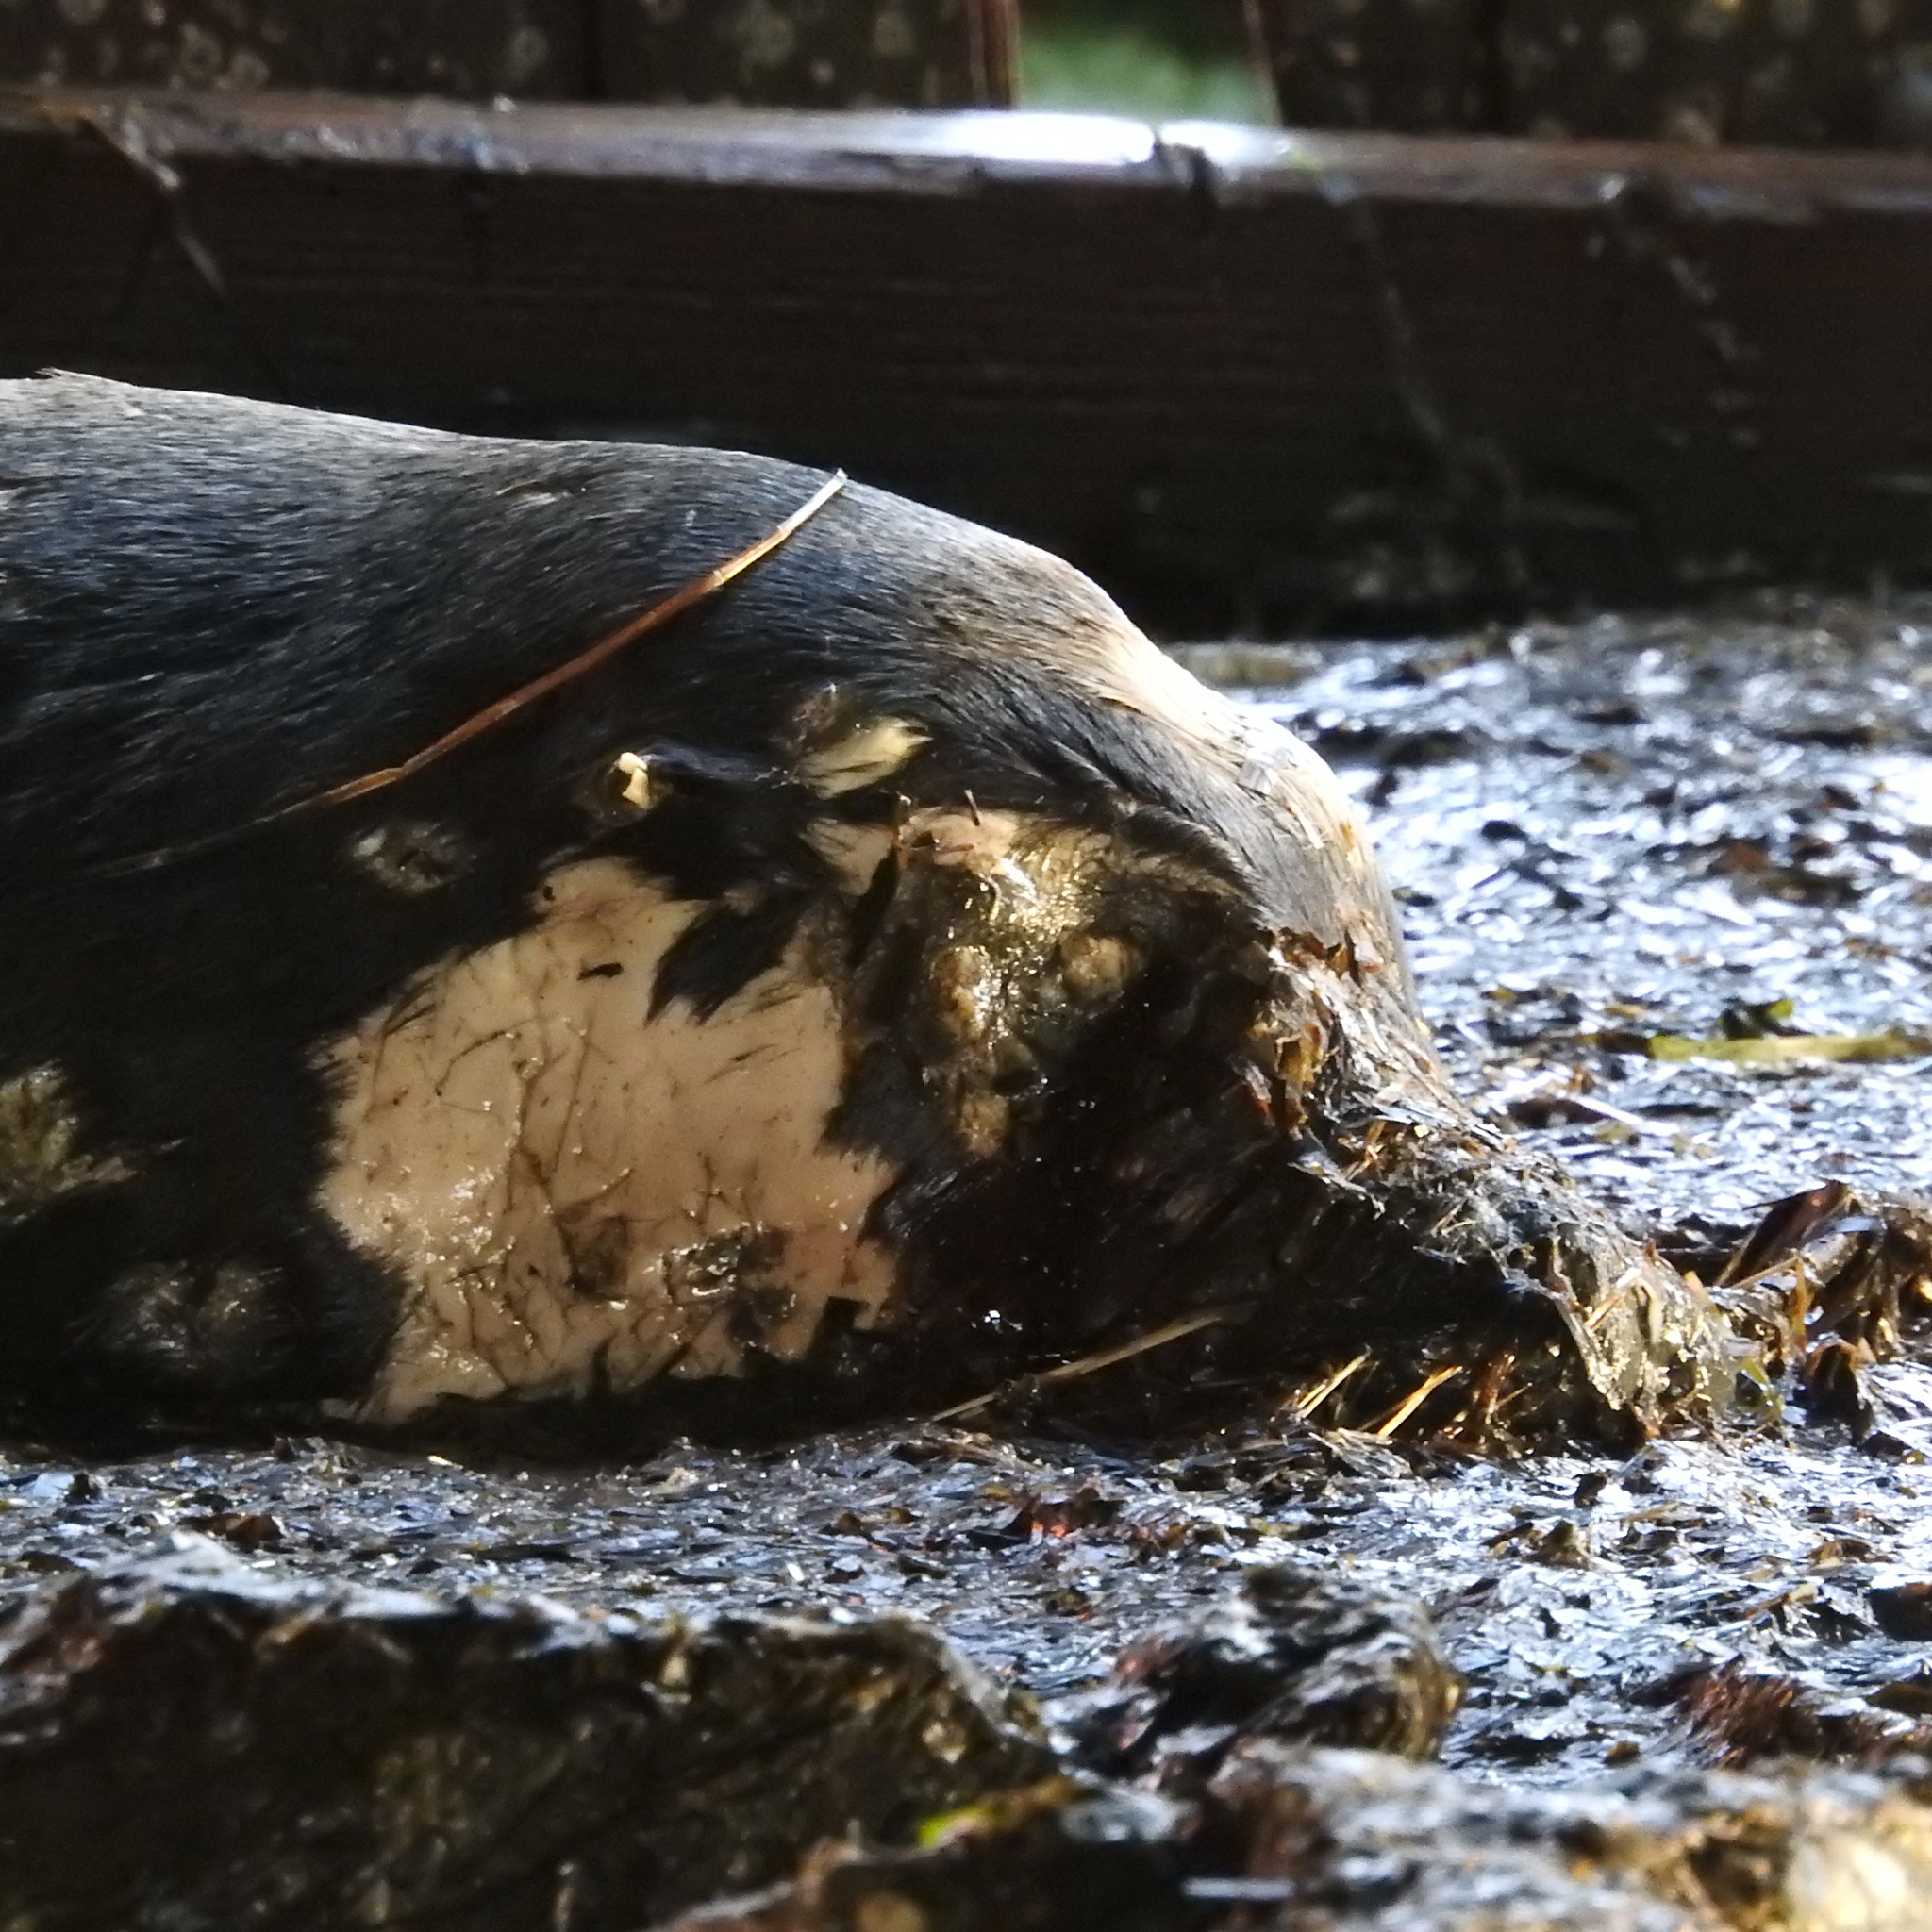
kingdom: Animalia
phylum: Chordata
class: Mammalia
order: Carnivora
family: Otariidae
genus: Zalophus
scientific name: Zalophus californianus
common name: California sea lion
